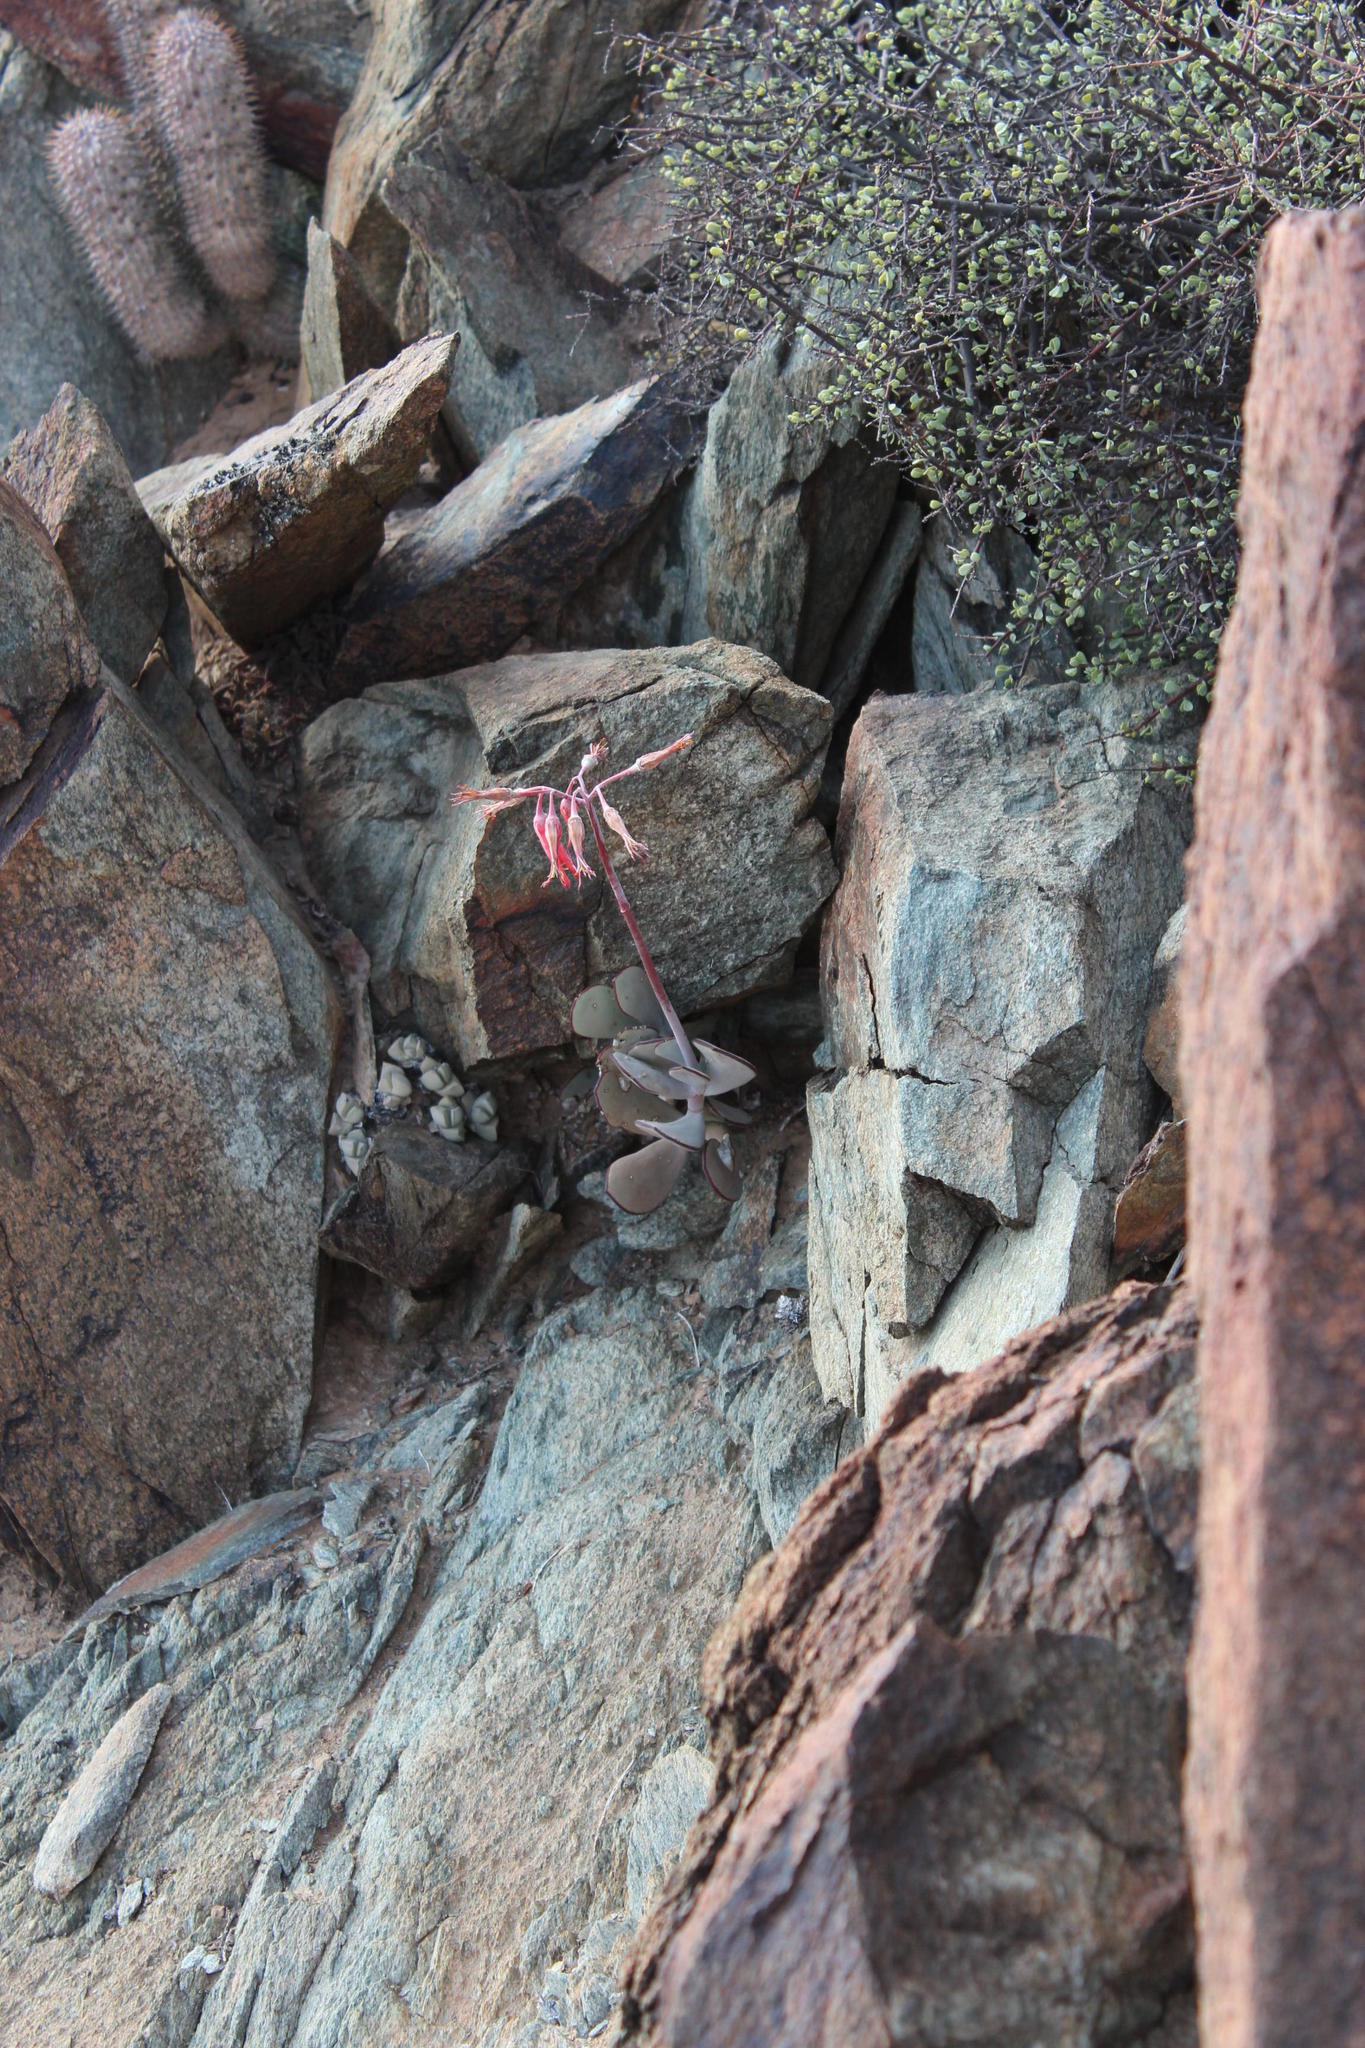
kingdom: Plantae
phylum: Tracheophyta
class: Magnoliopsida
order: Saxifragales
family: Crassulaceae
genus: Cotyledon
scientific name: Cotyledon orbiculata
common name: Pig's ear
